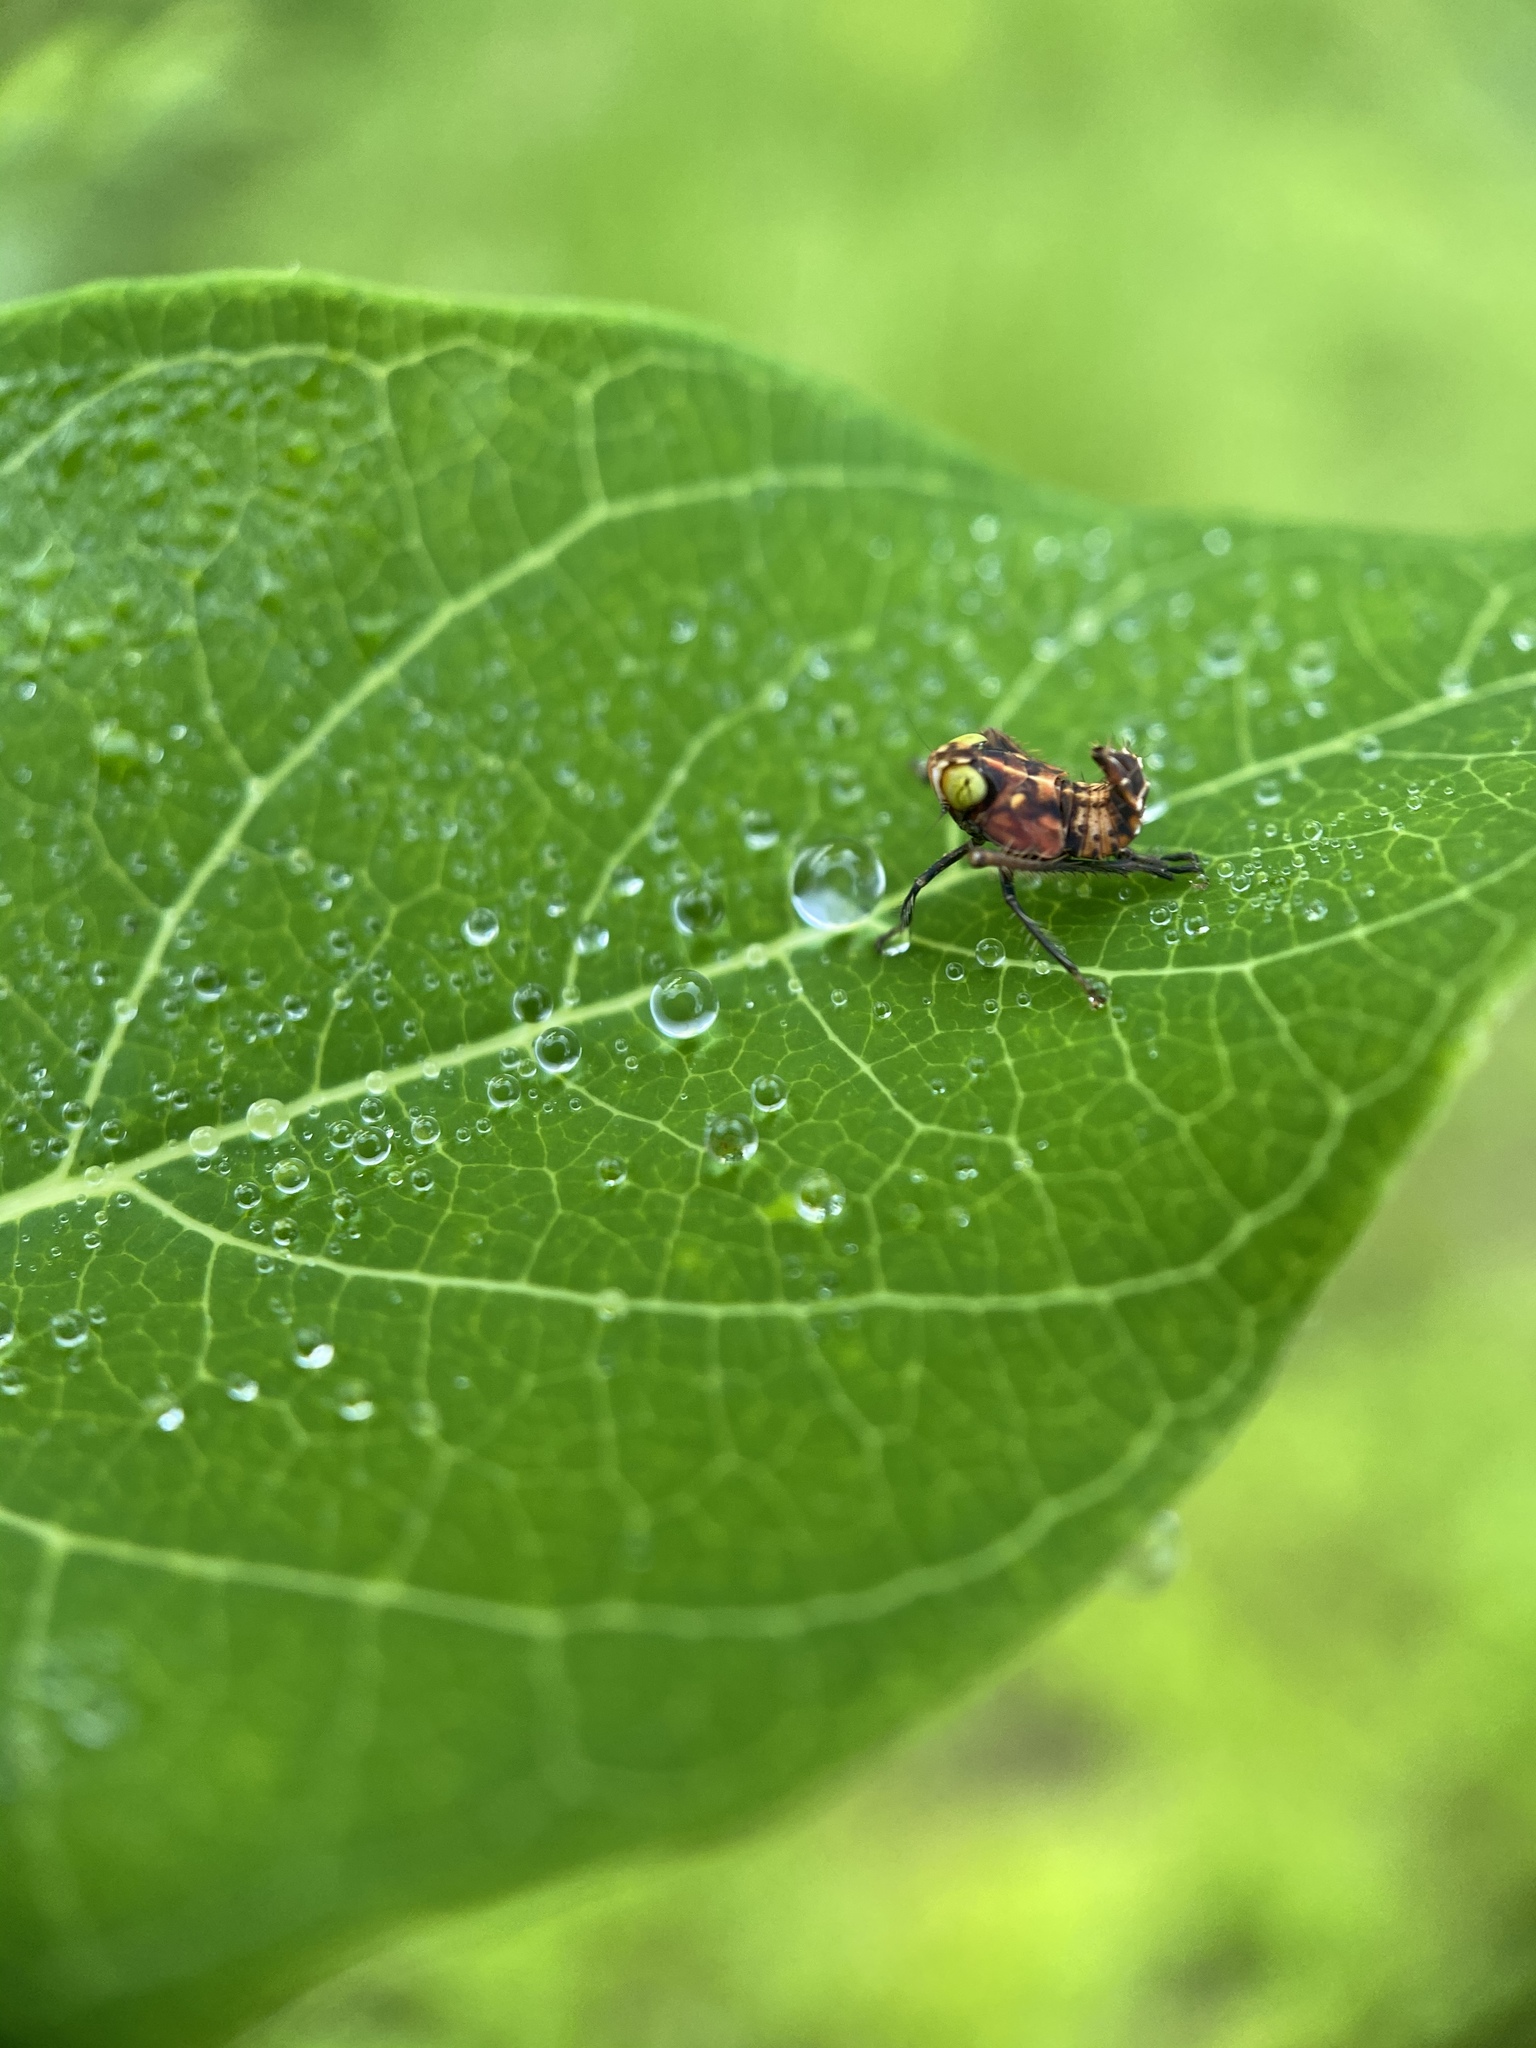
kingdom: Animalia
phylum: Arthropoda
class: Insecta
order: Hemiptera
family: Cicadellidae
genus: Jikradia
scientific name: Jikradia olitoria
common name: Coppery leafhopper
